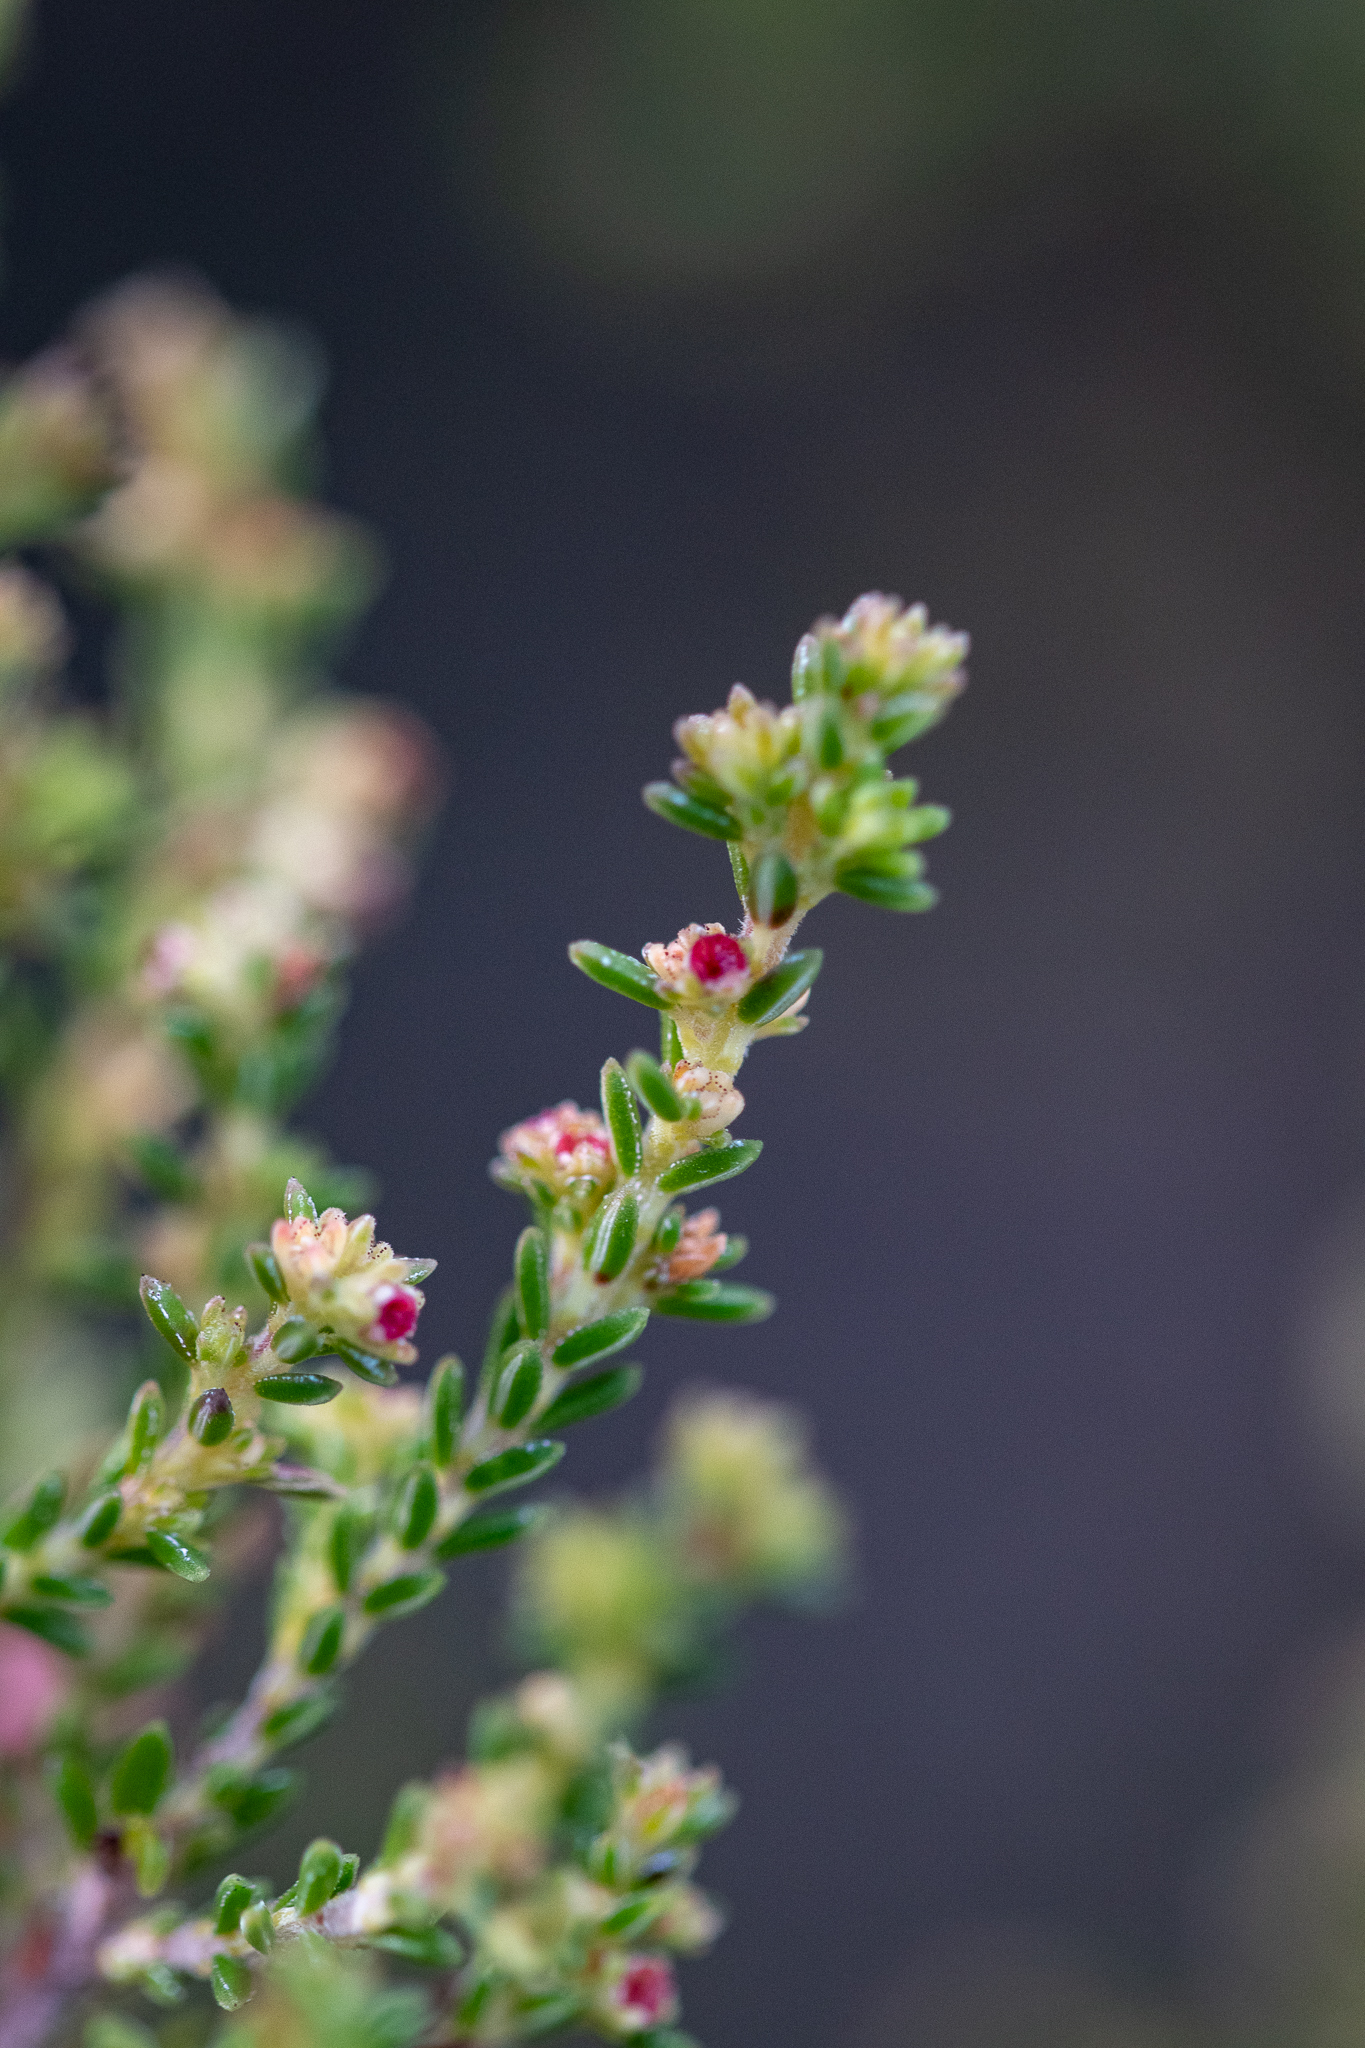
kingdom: Plantae
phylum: Tracheophyta
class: Magnoliopsida
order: Ericales
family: Ericaceae
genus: Erica
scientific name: Erica serrata
